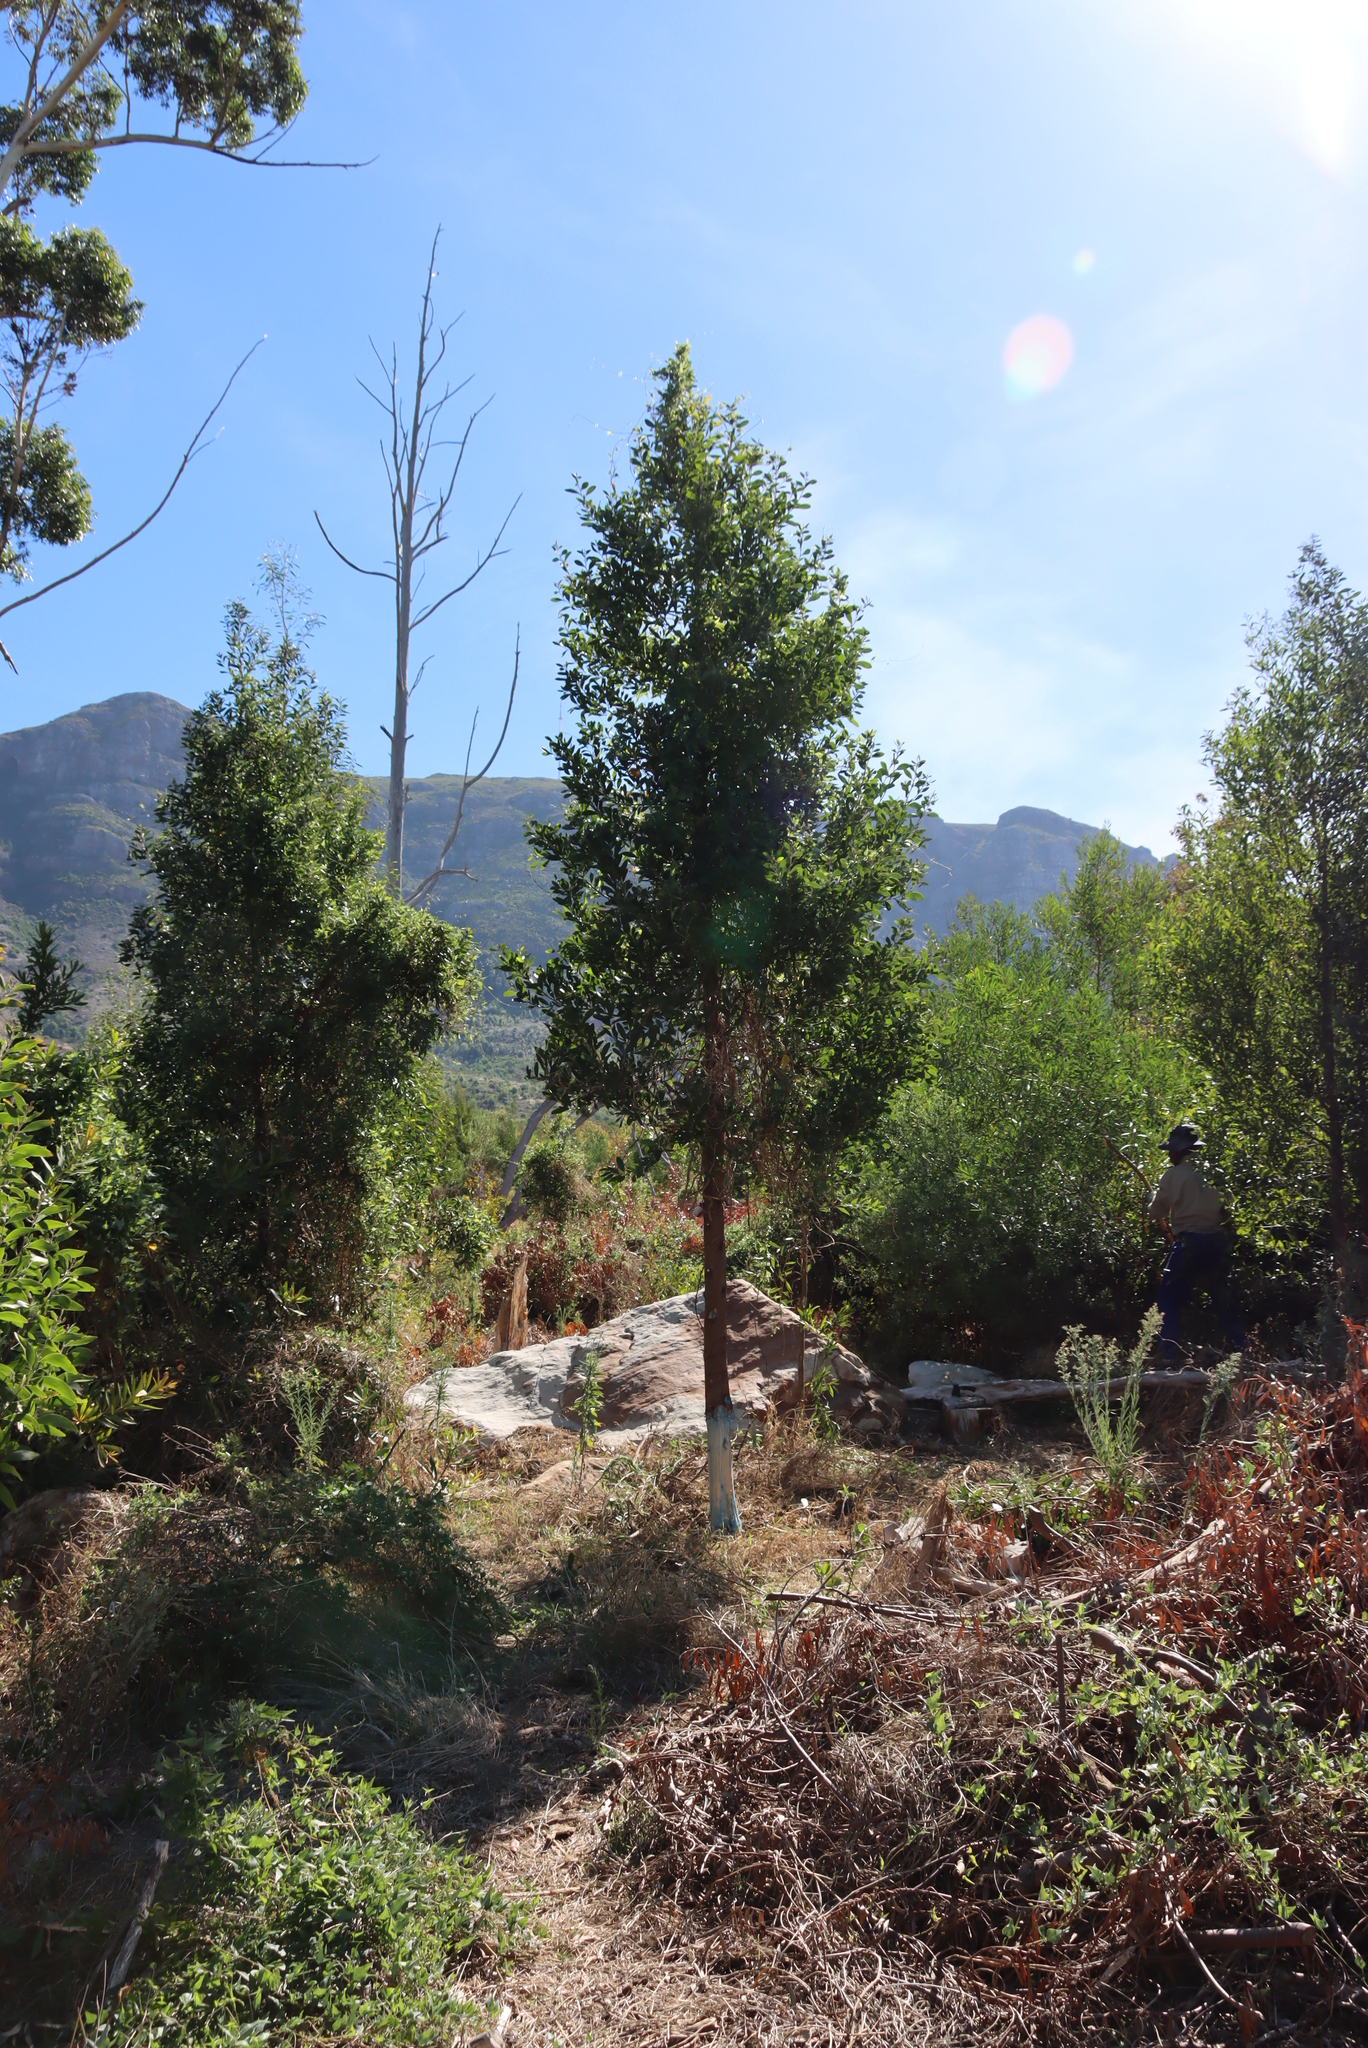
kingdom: Plantae
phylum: Tracheophyta
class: Magnoliopsida
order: Fabales
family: Fabaceae
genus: Acacia
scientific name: Acacia melanoxylon
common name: Blackwood
